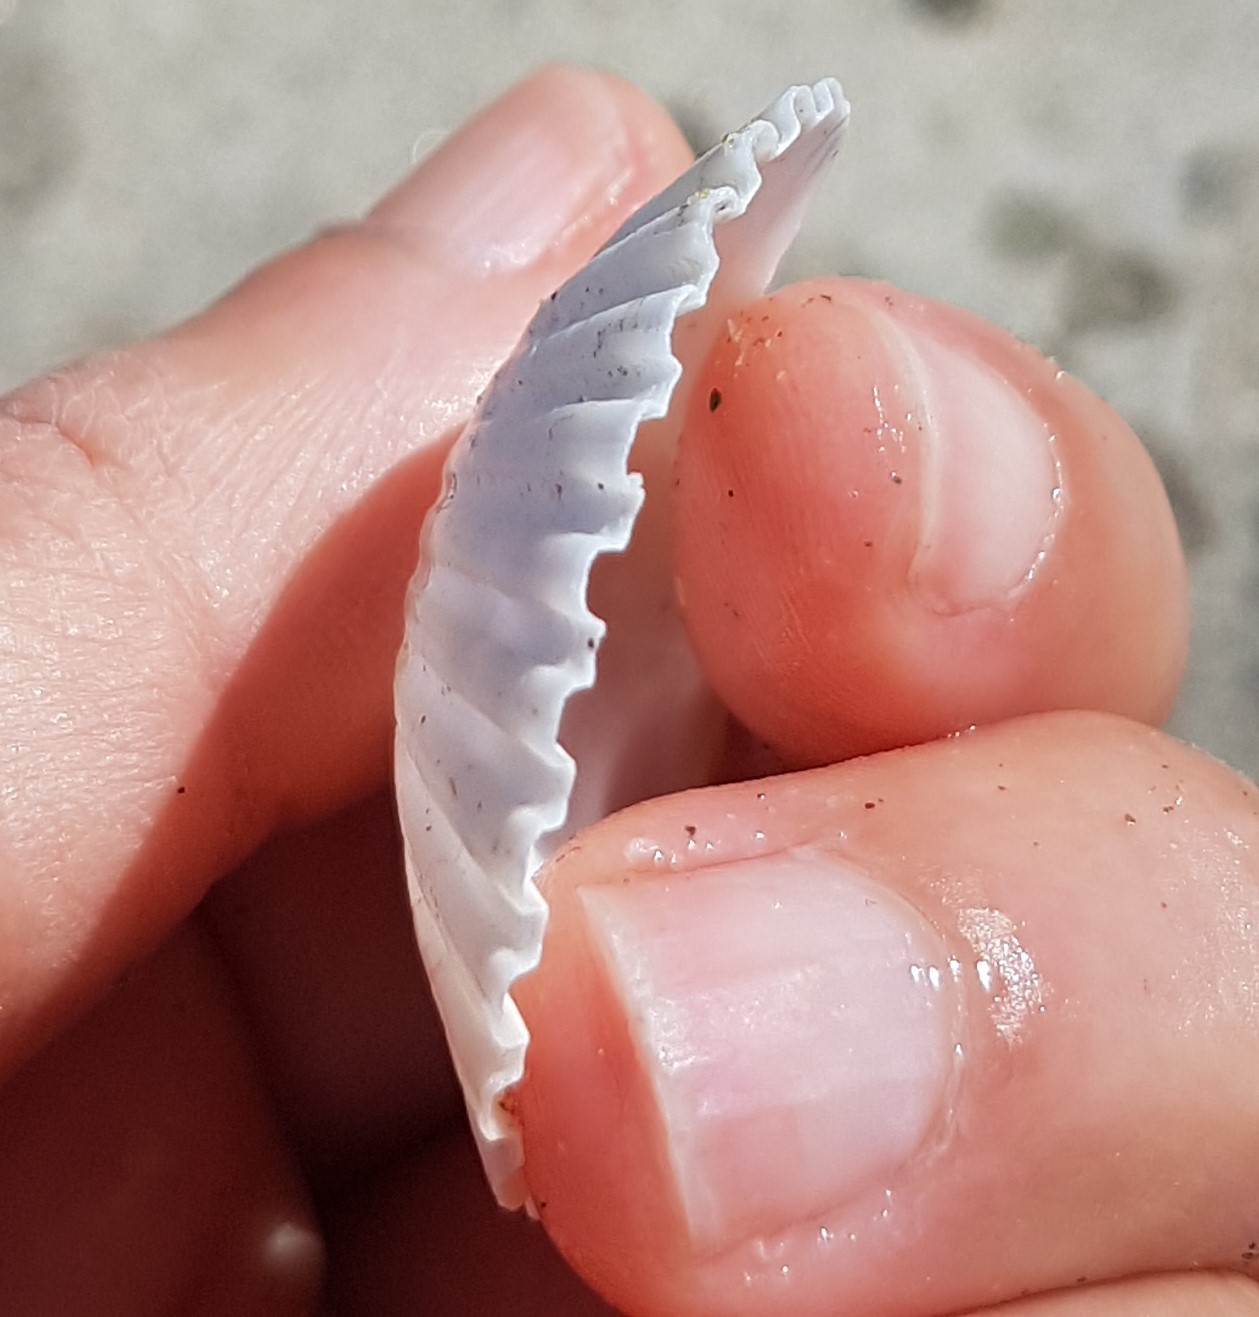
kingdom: Animalia
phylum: Mollusca
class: Bivalvia
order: Pectinida
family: Pectinidae
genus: Pecten
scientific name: Pecten jacobaeus
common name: St.james's scallop
